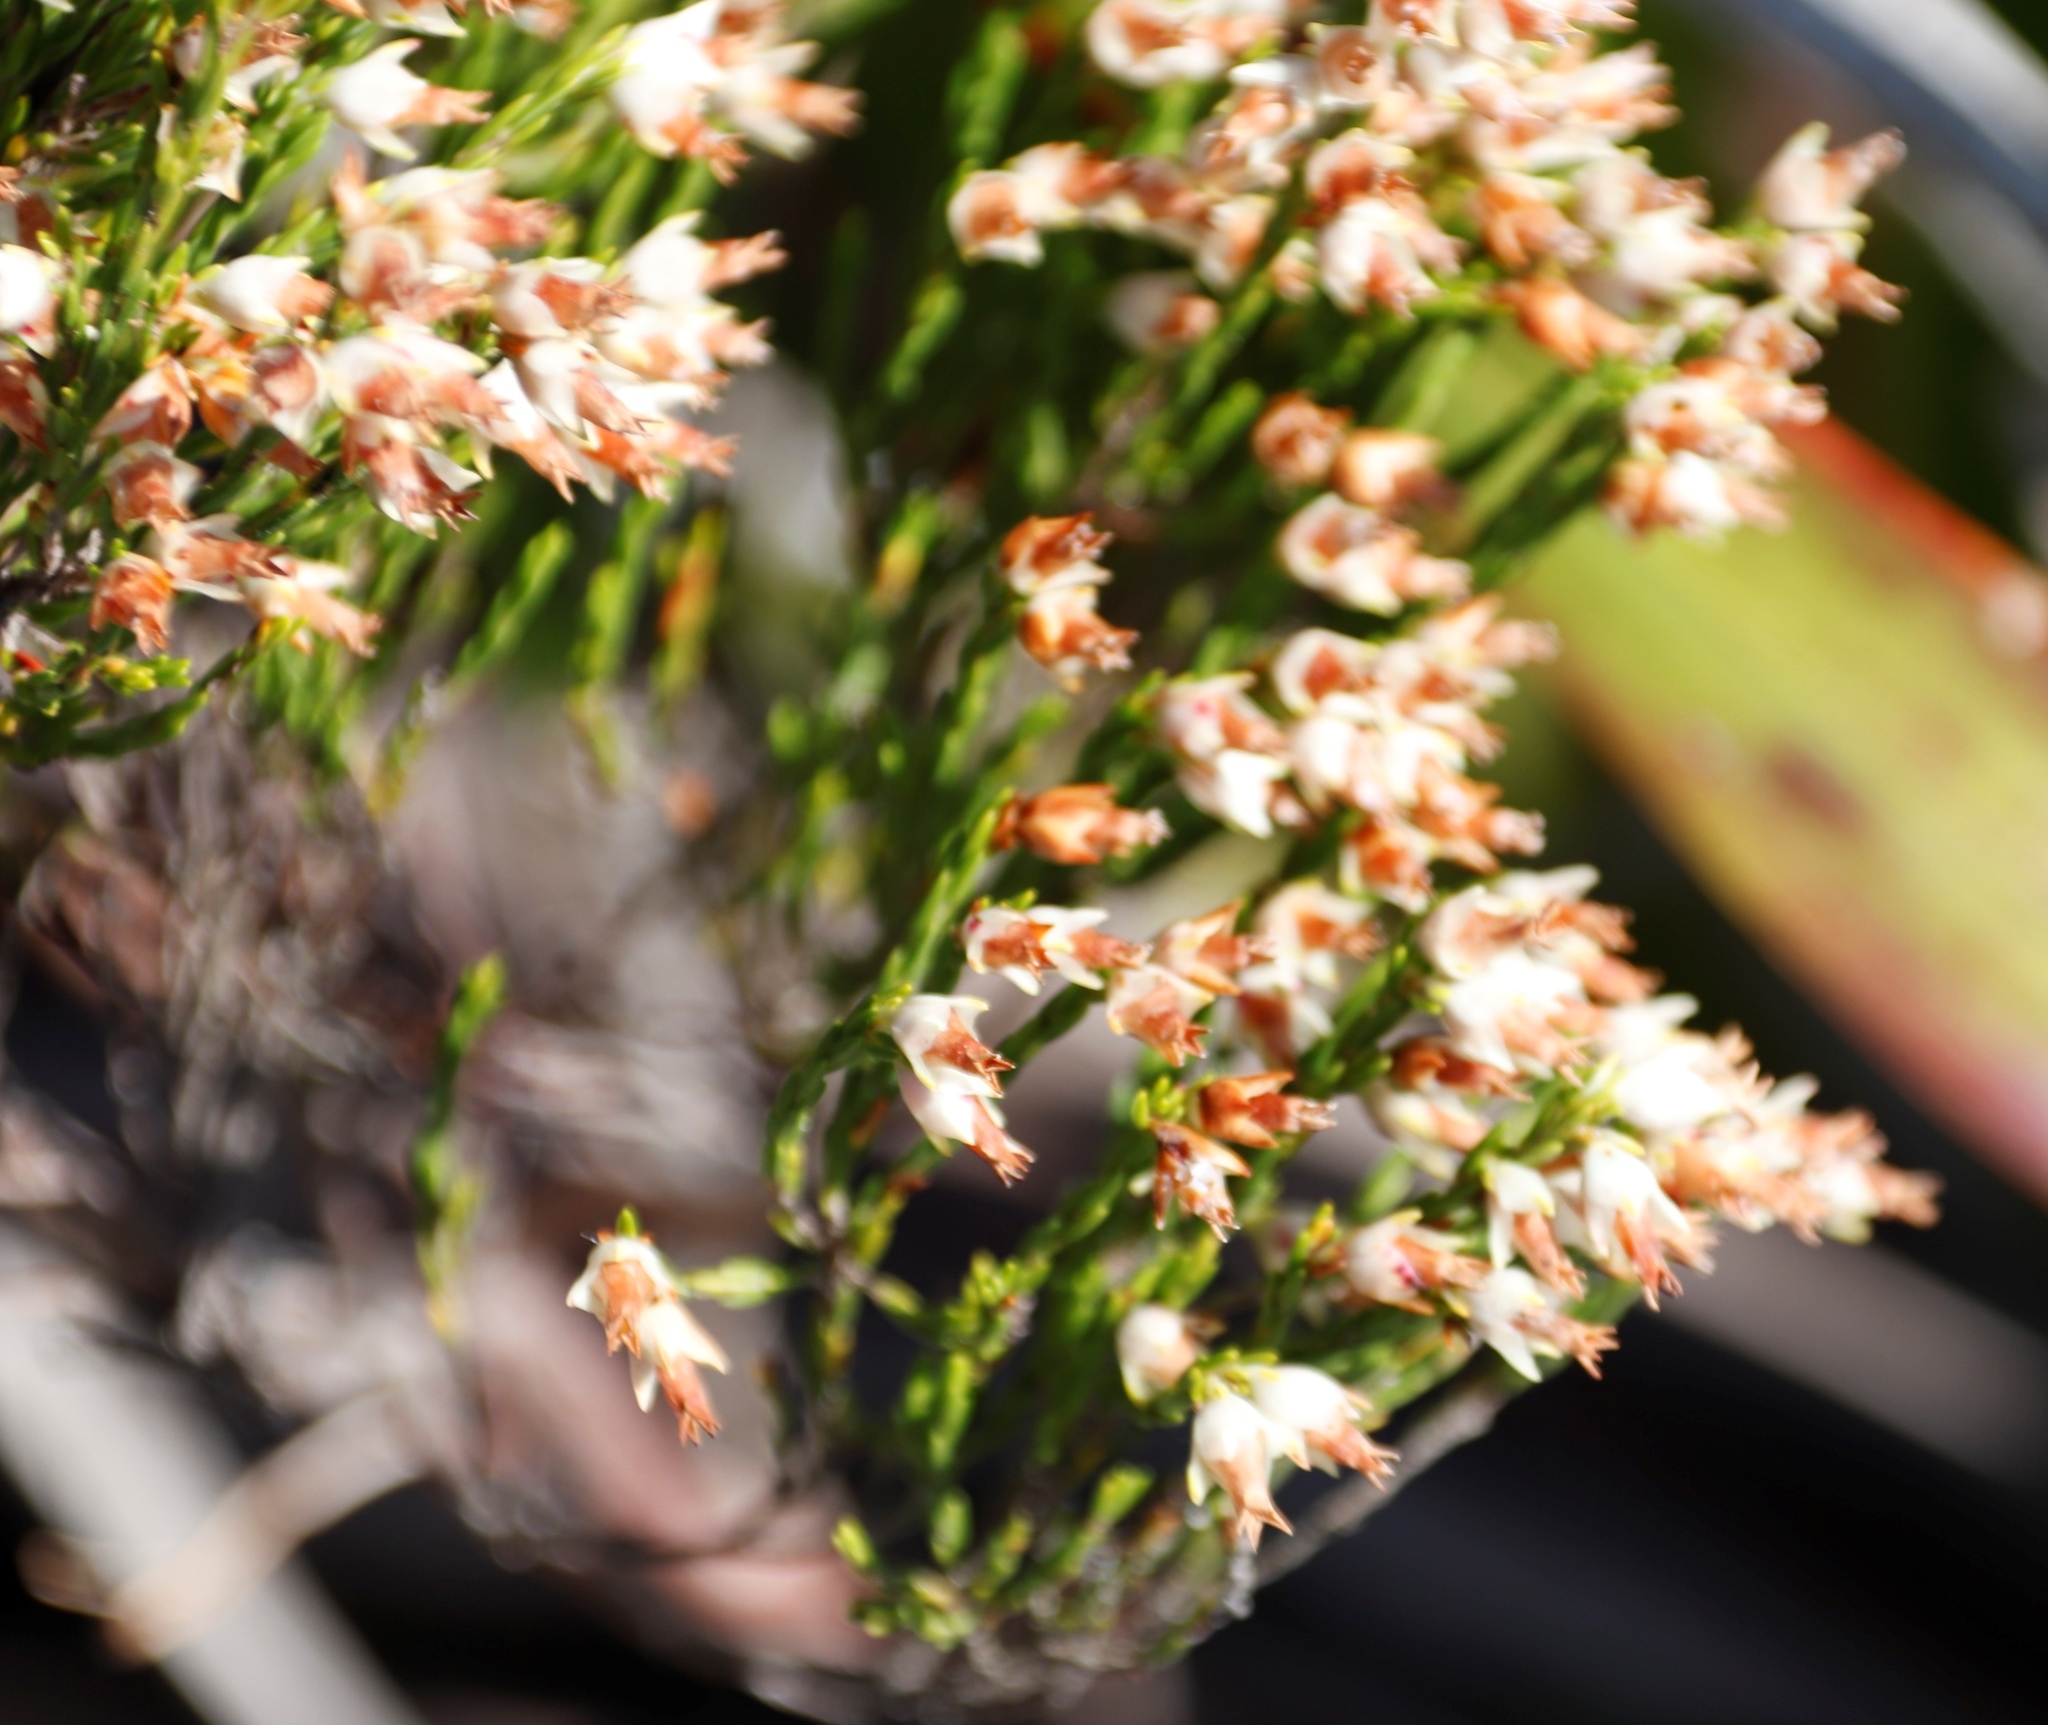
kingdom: Plantae
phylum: Tracheophyta
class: Magnoliopsida
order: Ericales
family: Ericaceae
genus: Erica
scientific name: Erica lutea
